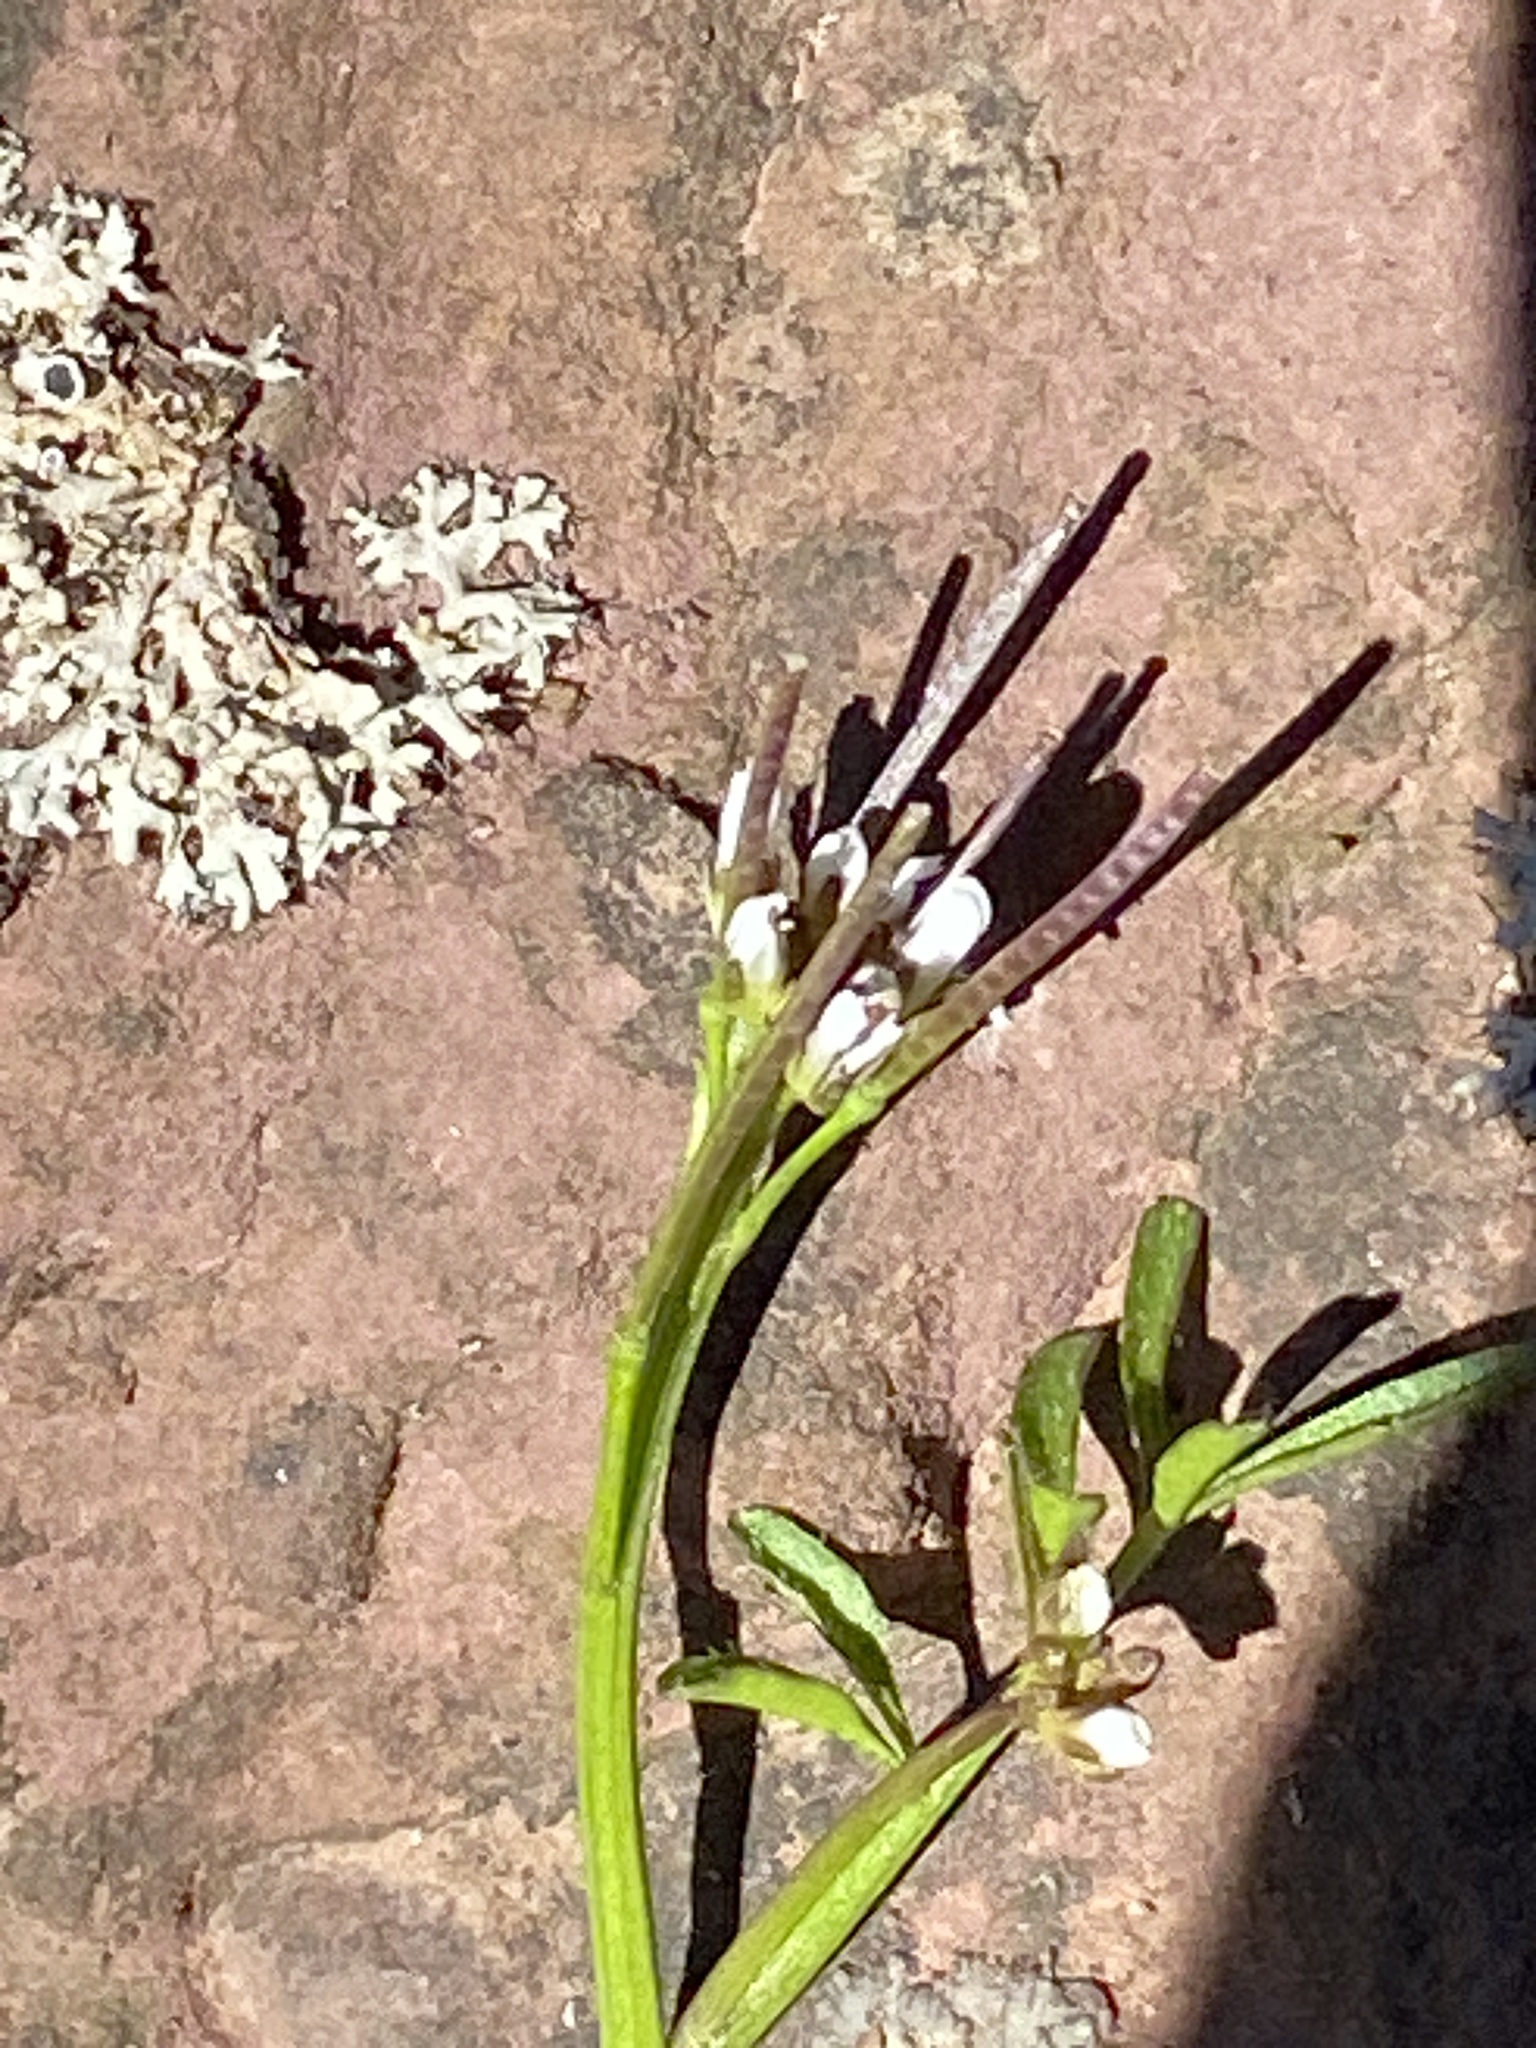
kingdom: Plantae
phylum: Tracheophyta
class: Magnoliopsida
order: Brassicales
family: Brassicaceae
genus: Cardamine
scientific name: Cardamine hirsuta
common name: Hairy bittercress
